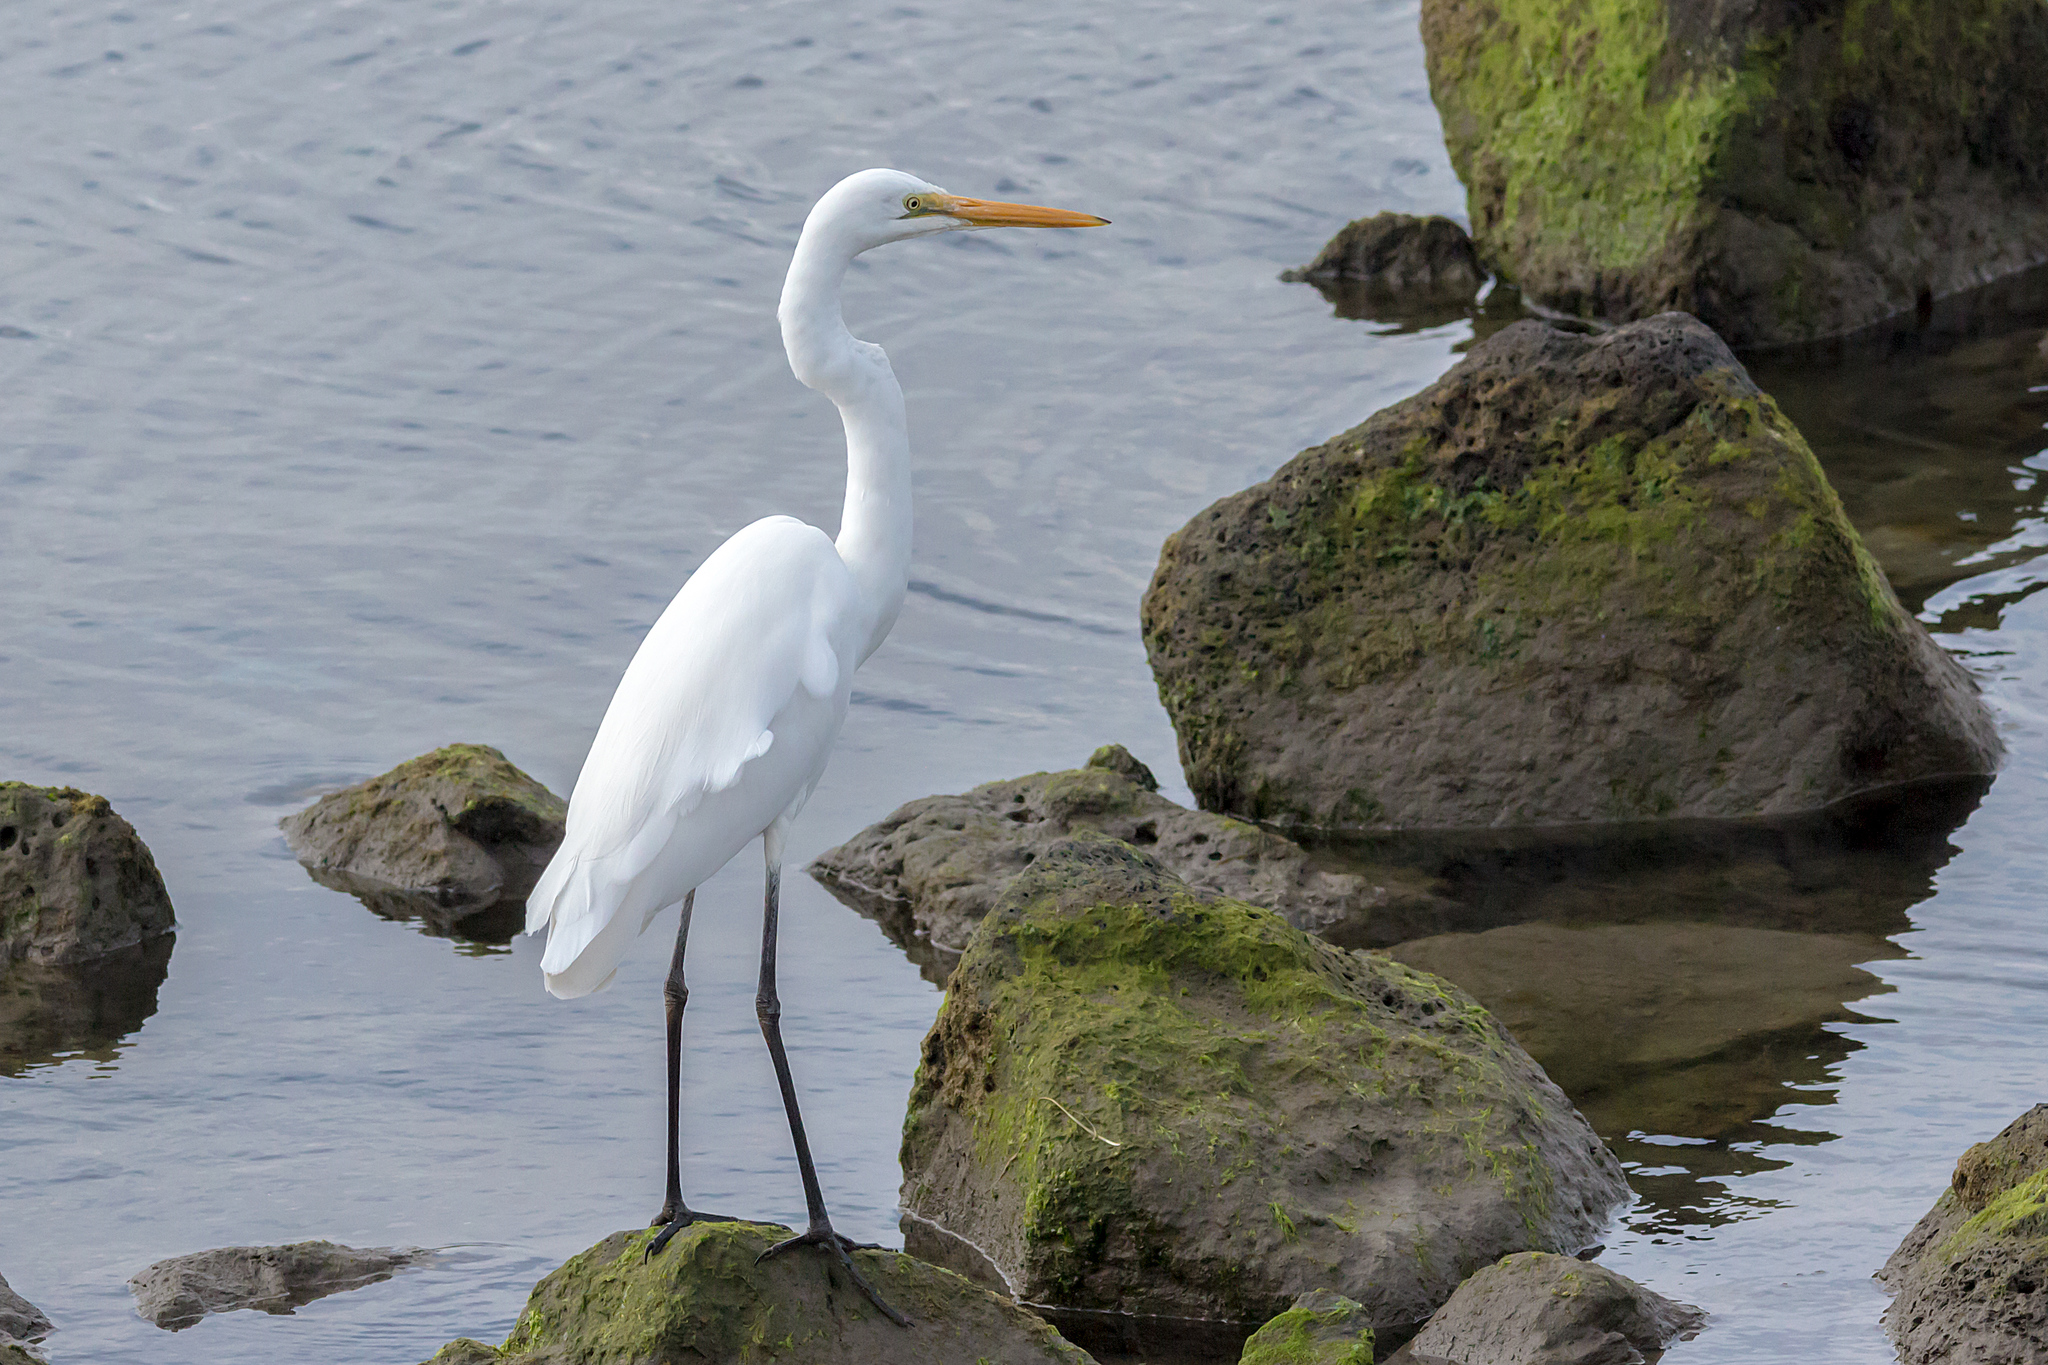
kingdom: Animalia
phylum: Chordata
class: Aves
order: Pelecaniformes
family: Ardeidae
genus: Ardea
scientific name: Ardea alba
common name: Great egret
